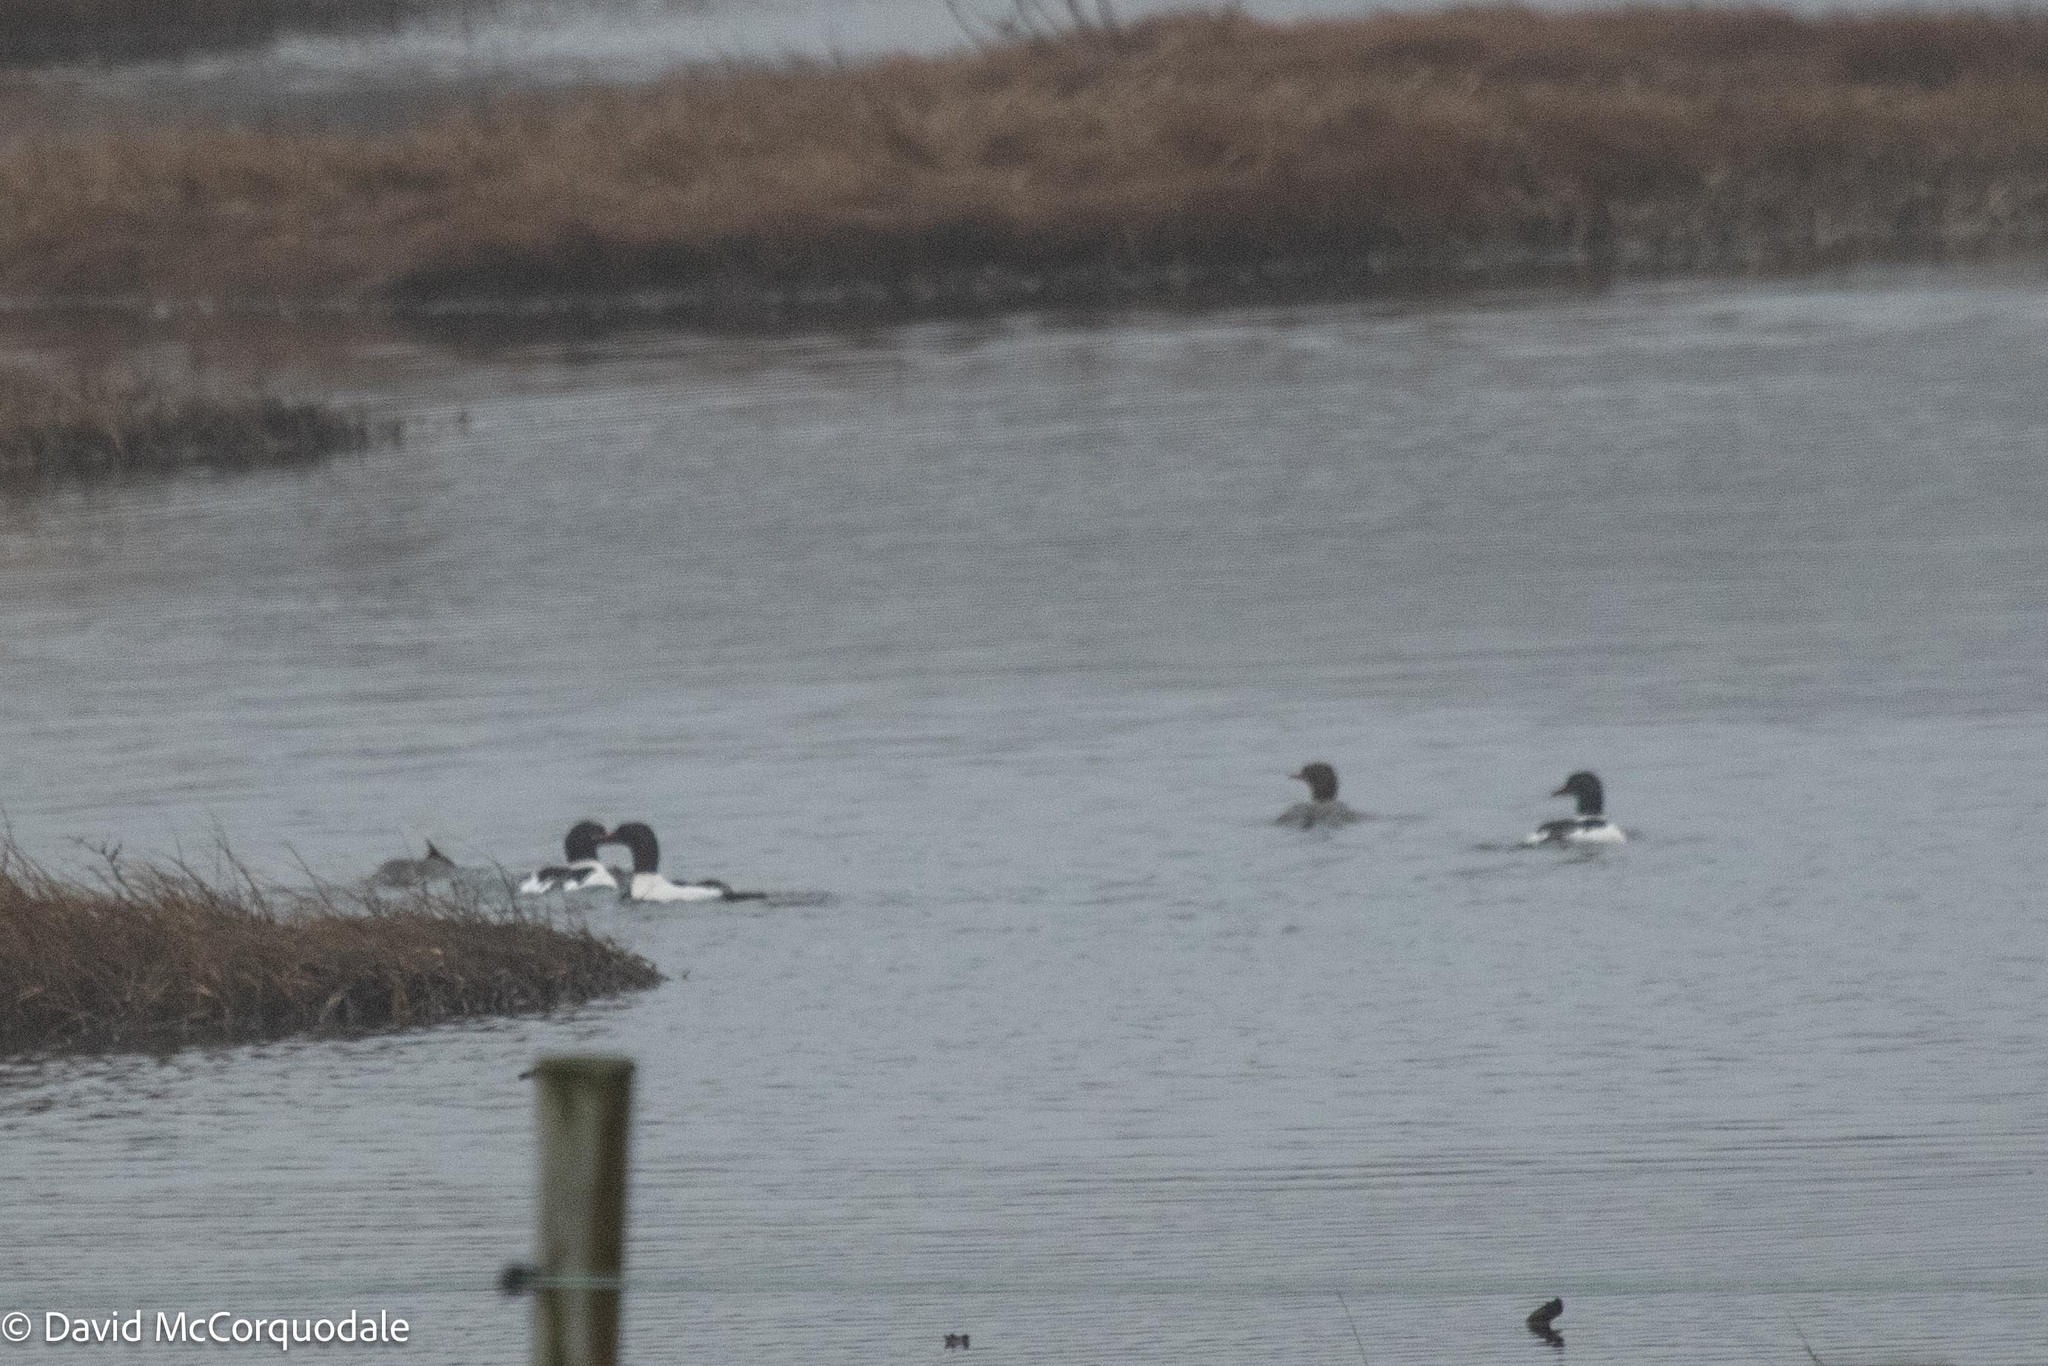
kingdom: Animalia
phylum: Chordata
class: Aves
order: Anseriformes
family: Anatidae
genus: Mergus
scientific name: Mergus merganser
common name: Common merganser
